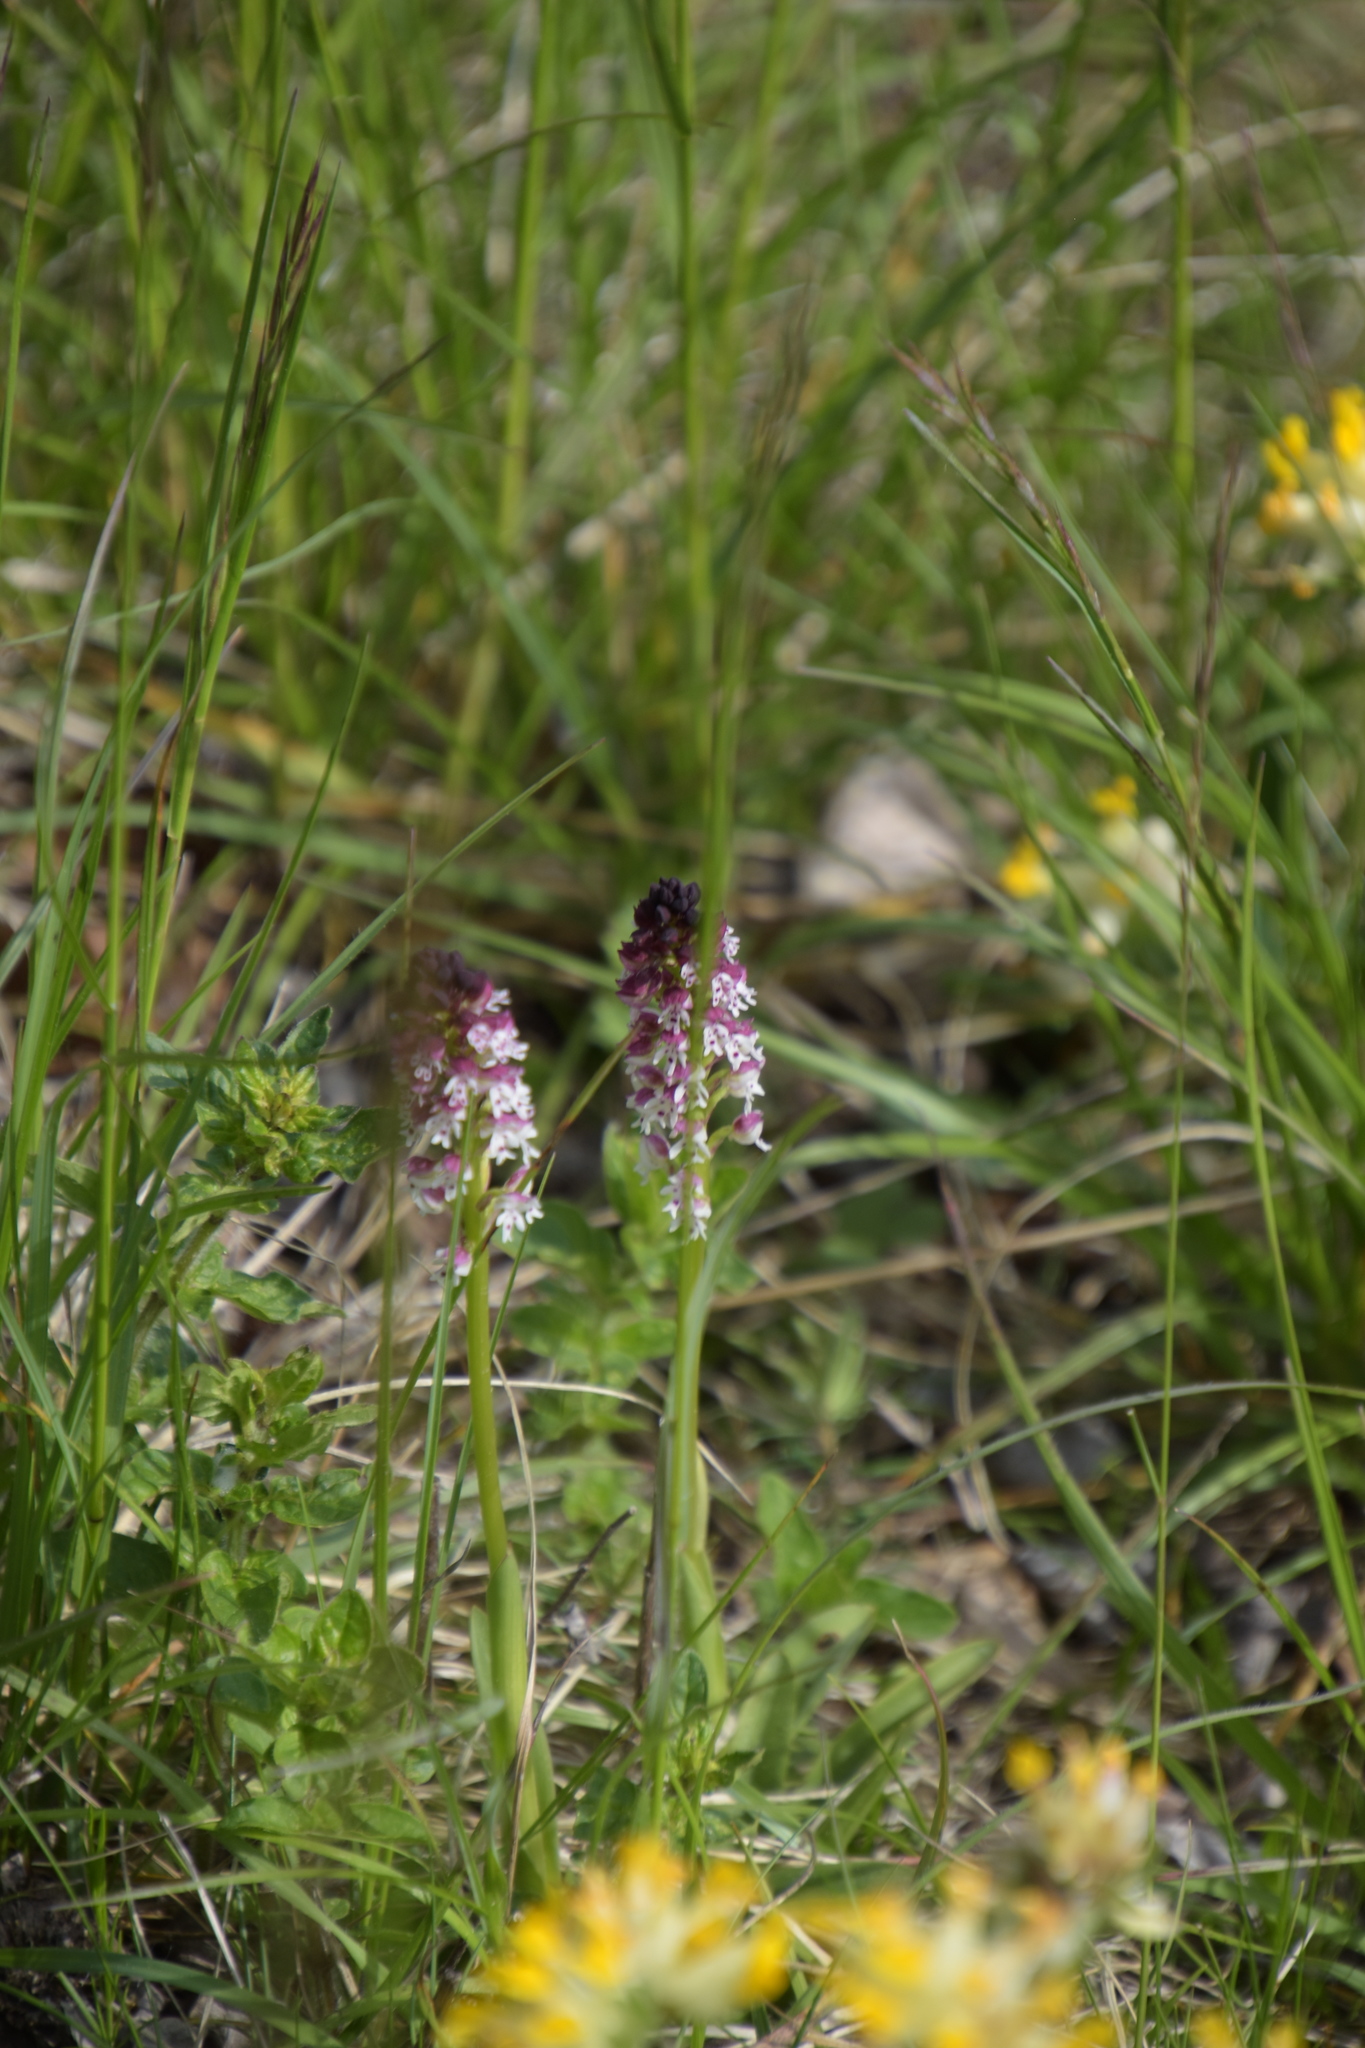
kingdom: Plantae
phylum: Tracheophyta
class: Liliopsida
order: Asparagales
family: Orchidaceae
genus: Neotinea
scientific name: Neotinea ustulata
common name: Burnt orchid
